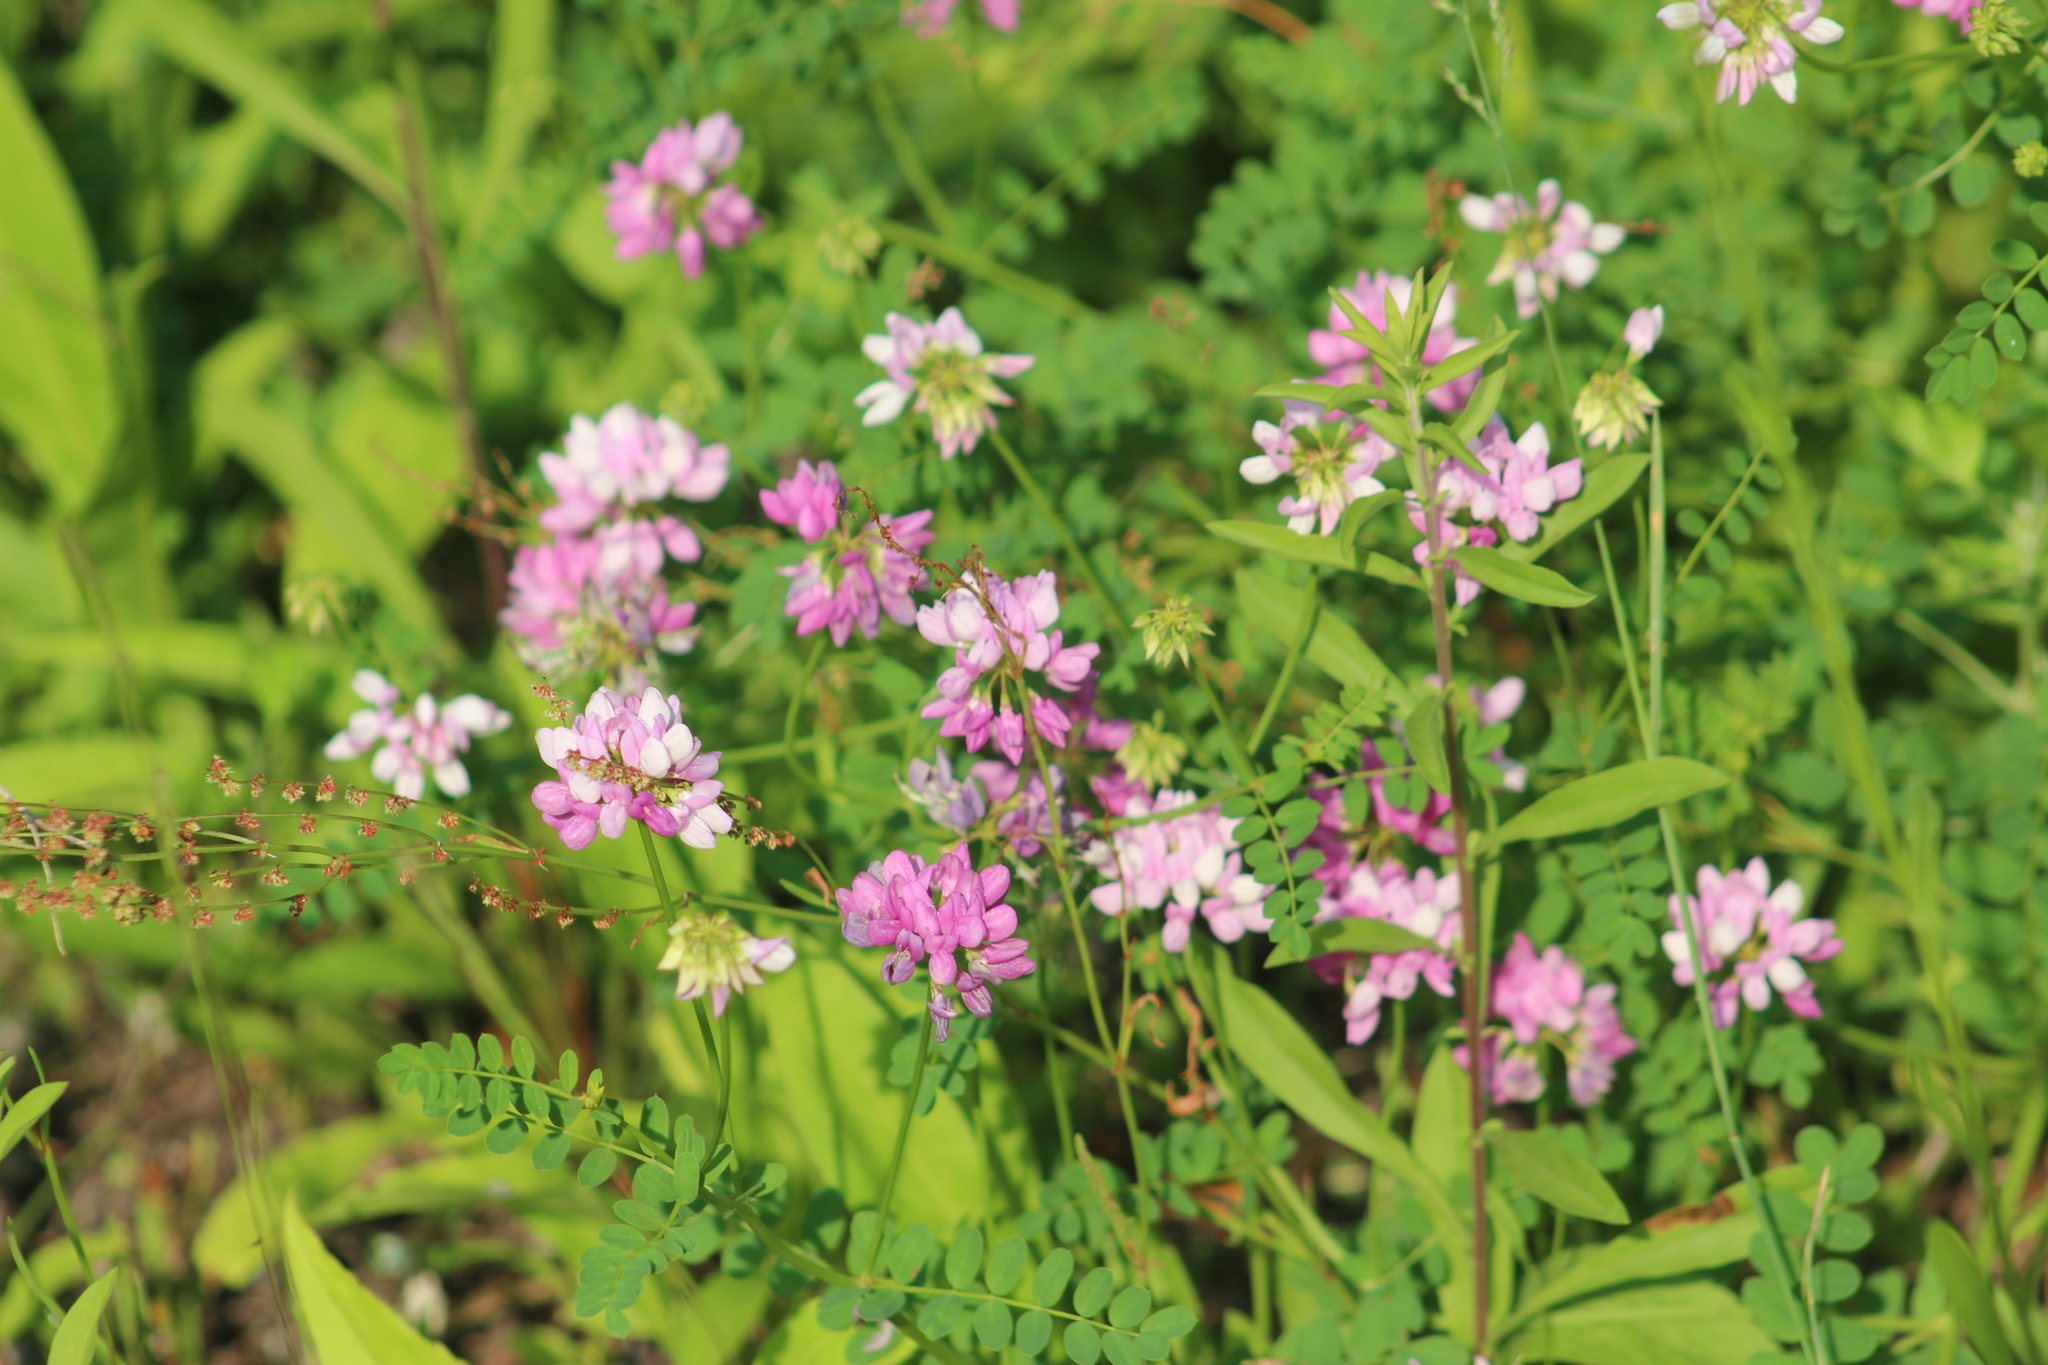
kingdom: Plantae
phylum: Tracheophyta
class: Magnoliopsida
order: Fabales
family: Fabaceae
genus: Coronilla
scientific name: Coronilla varia
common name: Crownvetch
